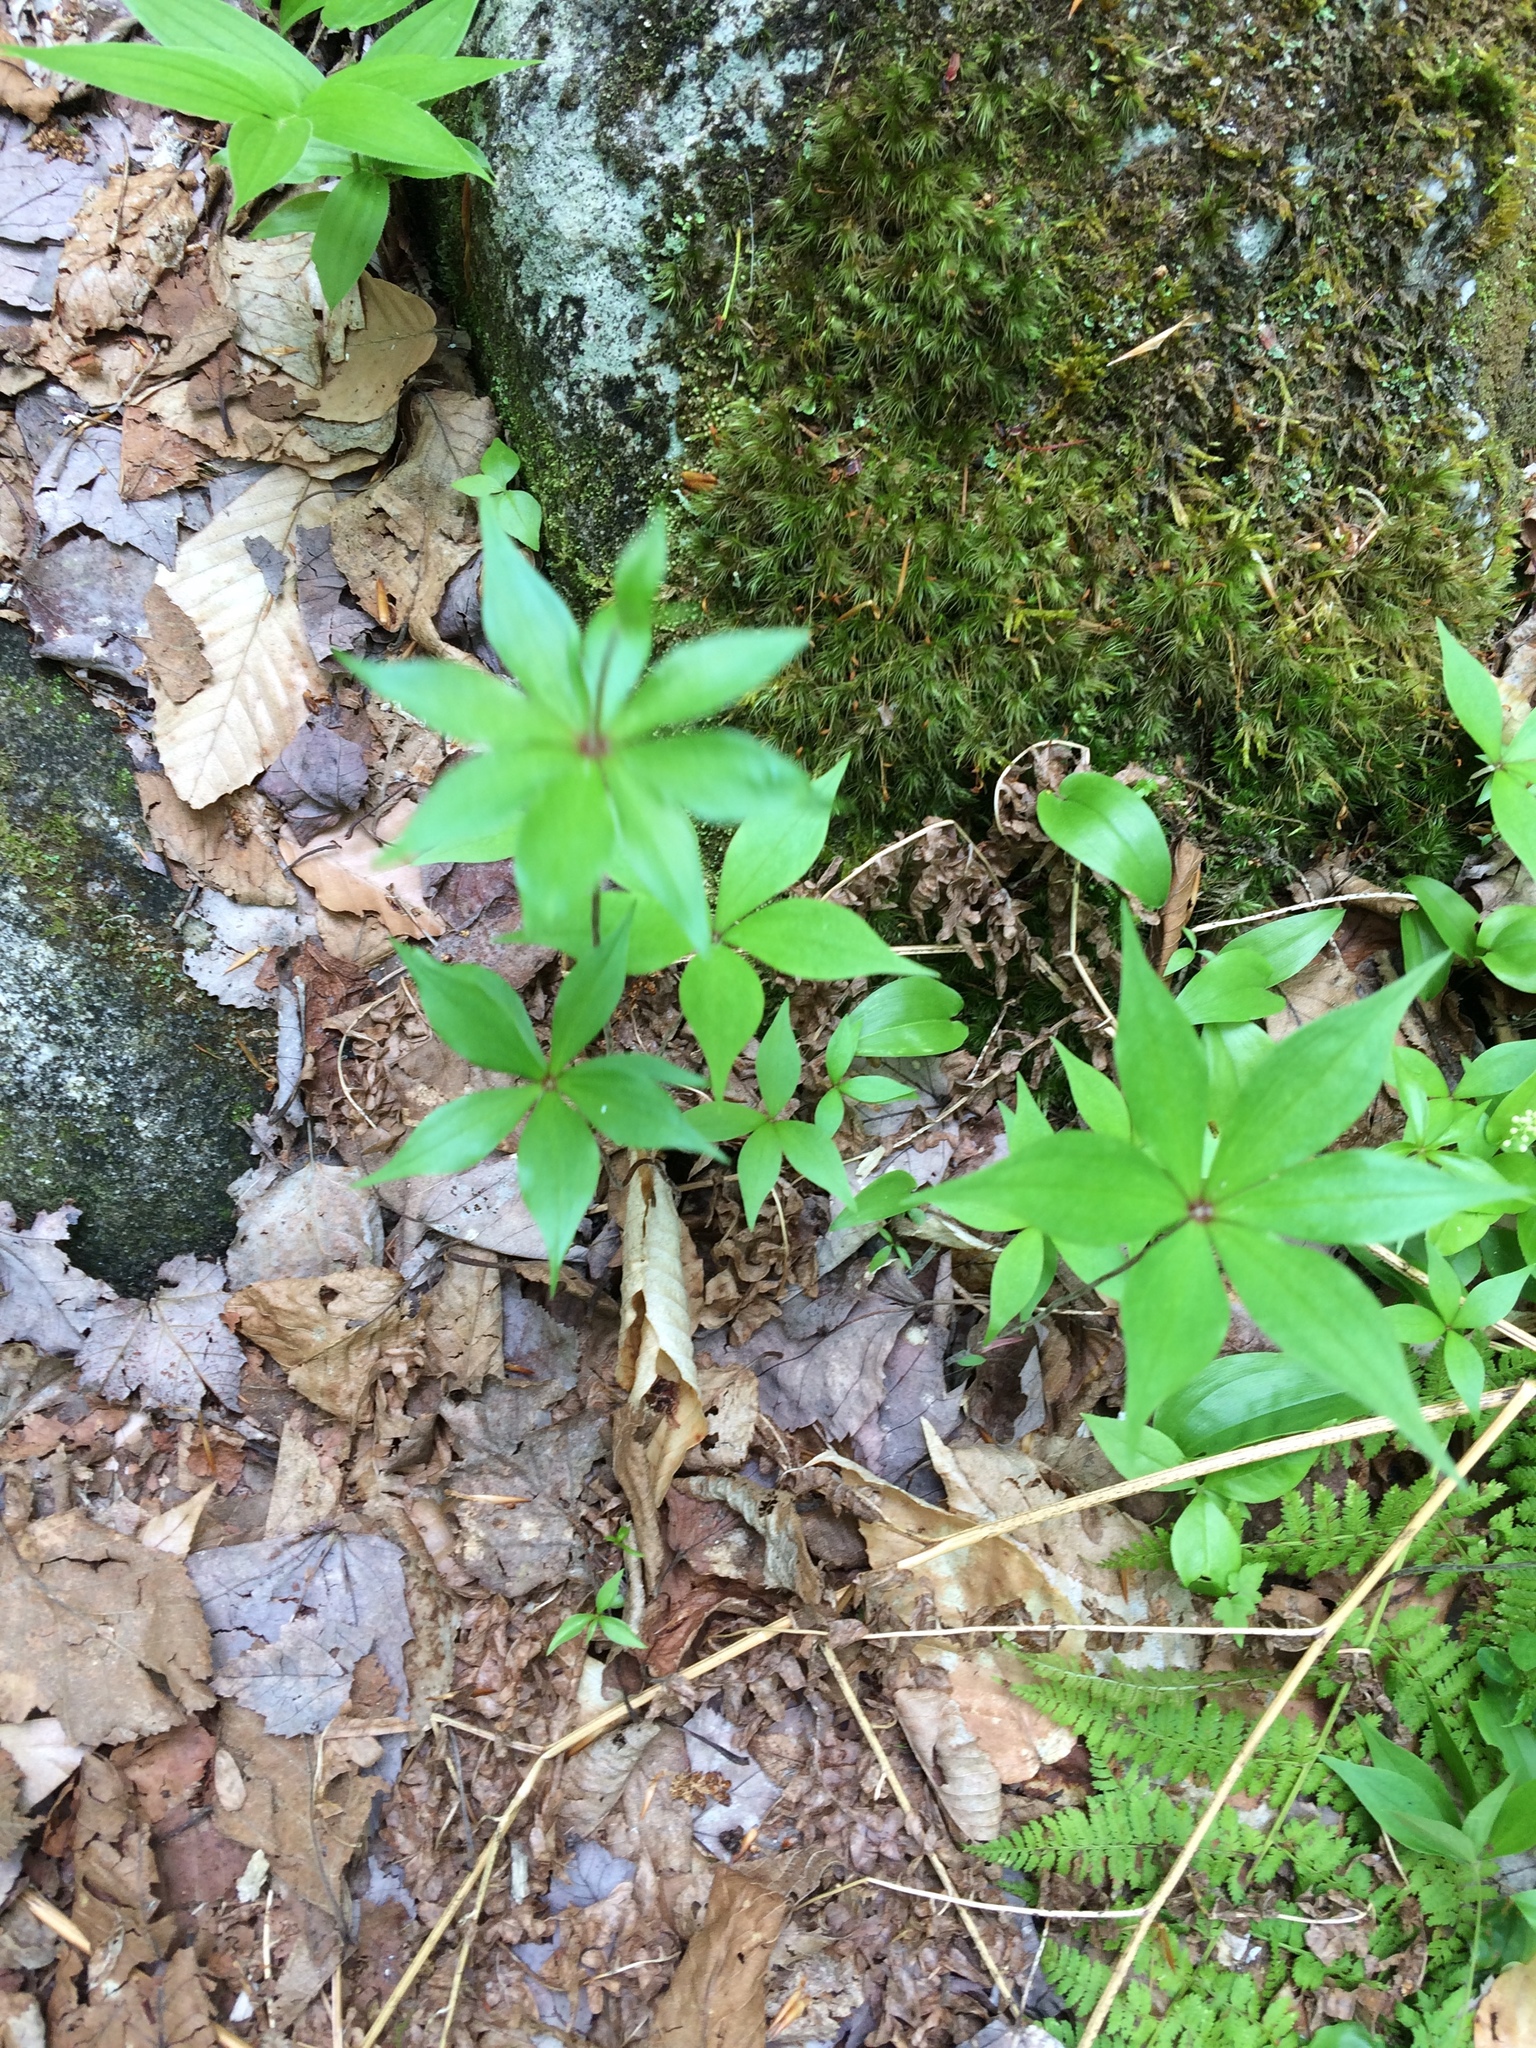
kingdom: Plantae
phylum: Tracheophyta
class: Liliopsida
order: Liliales
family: Liliaceae
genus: Medeola
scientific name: Medeola virginiana
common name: Indian cucumber-root
